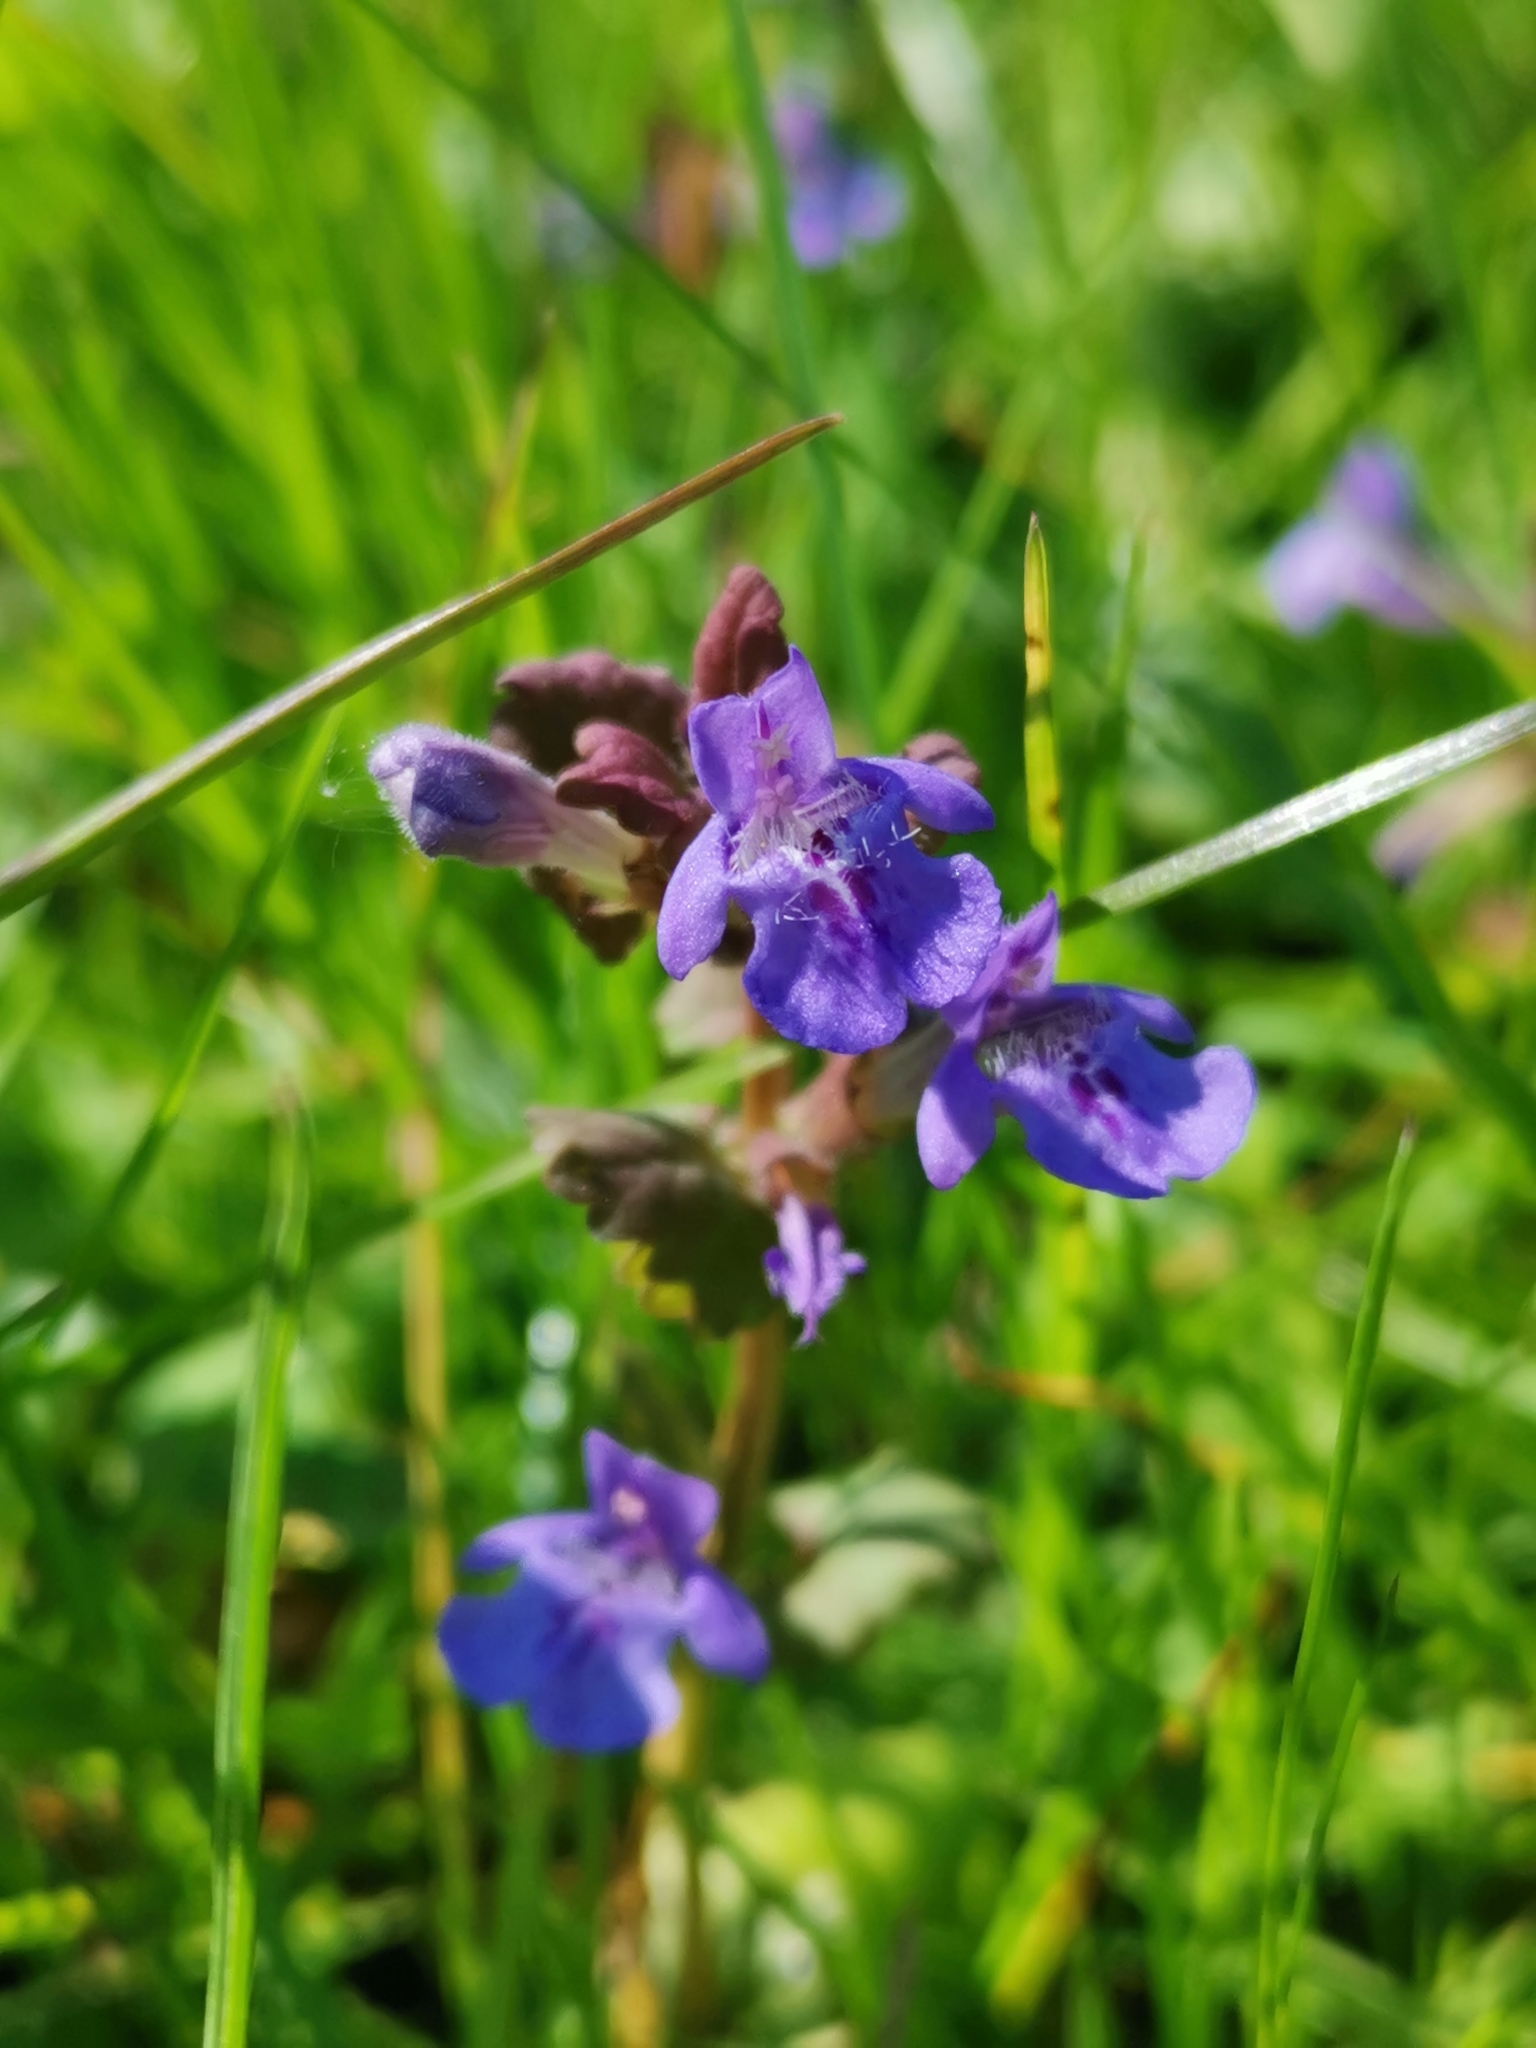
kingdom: Plantae
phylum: Tracheophyta
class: Magnoliopsida
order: Lamiales
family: Lamiaceae
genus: Glechoma
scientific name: Glechoma hederacea
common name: Ground ivy
